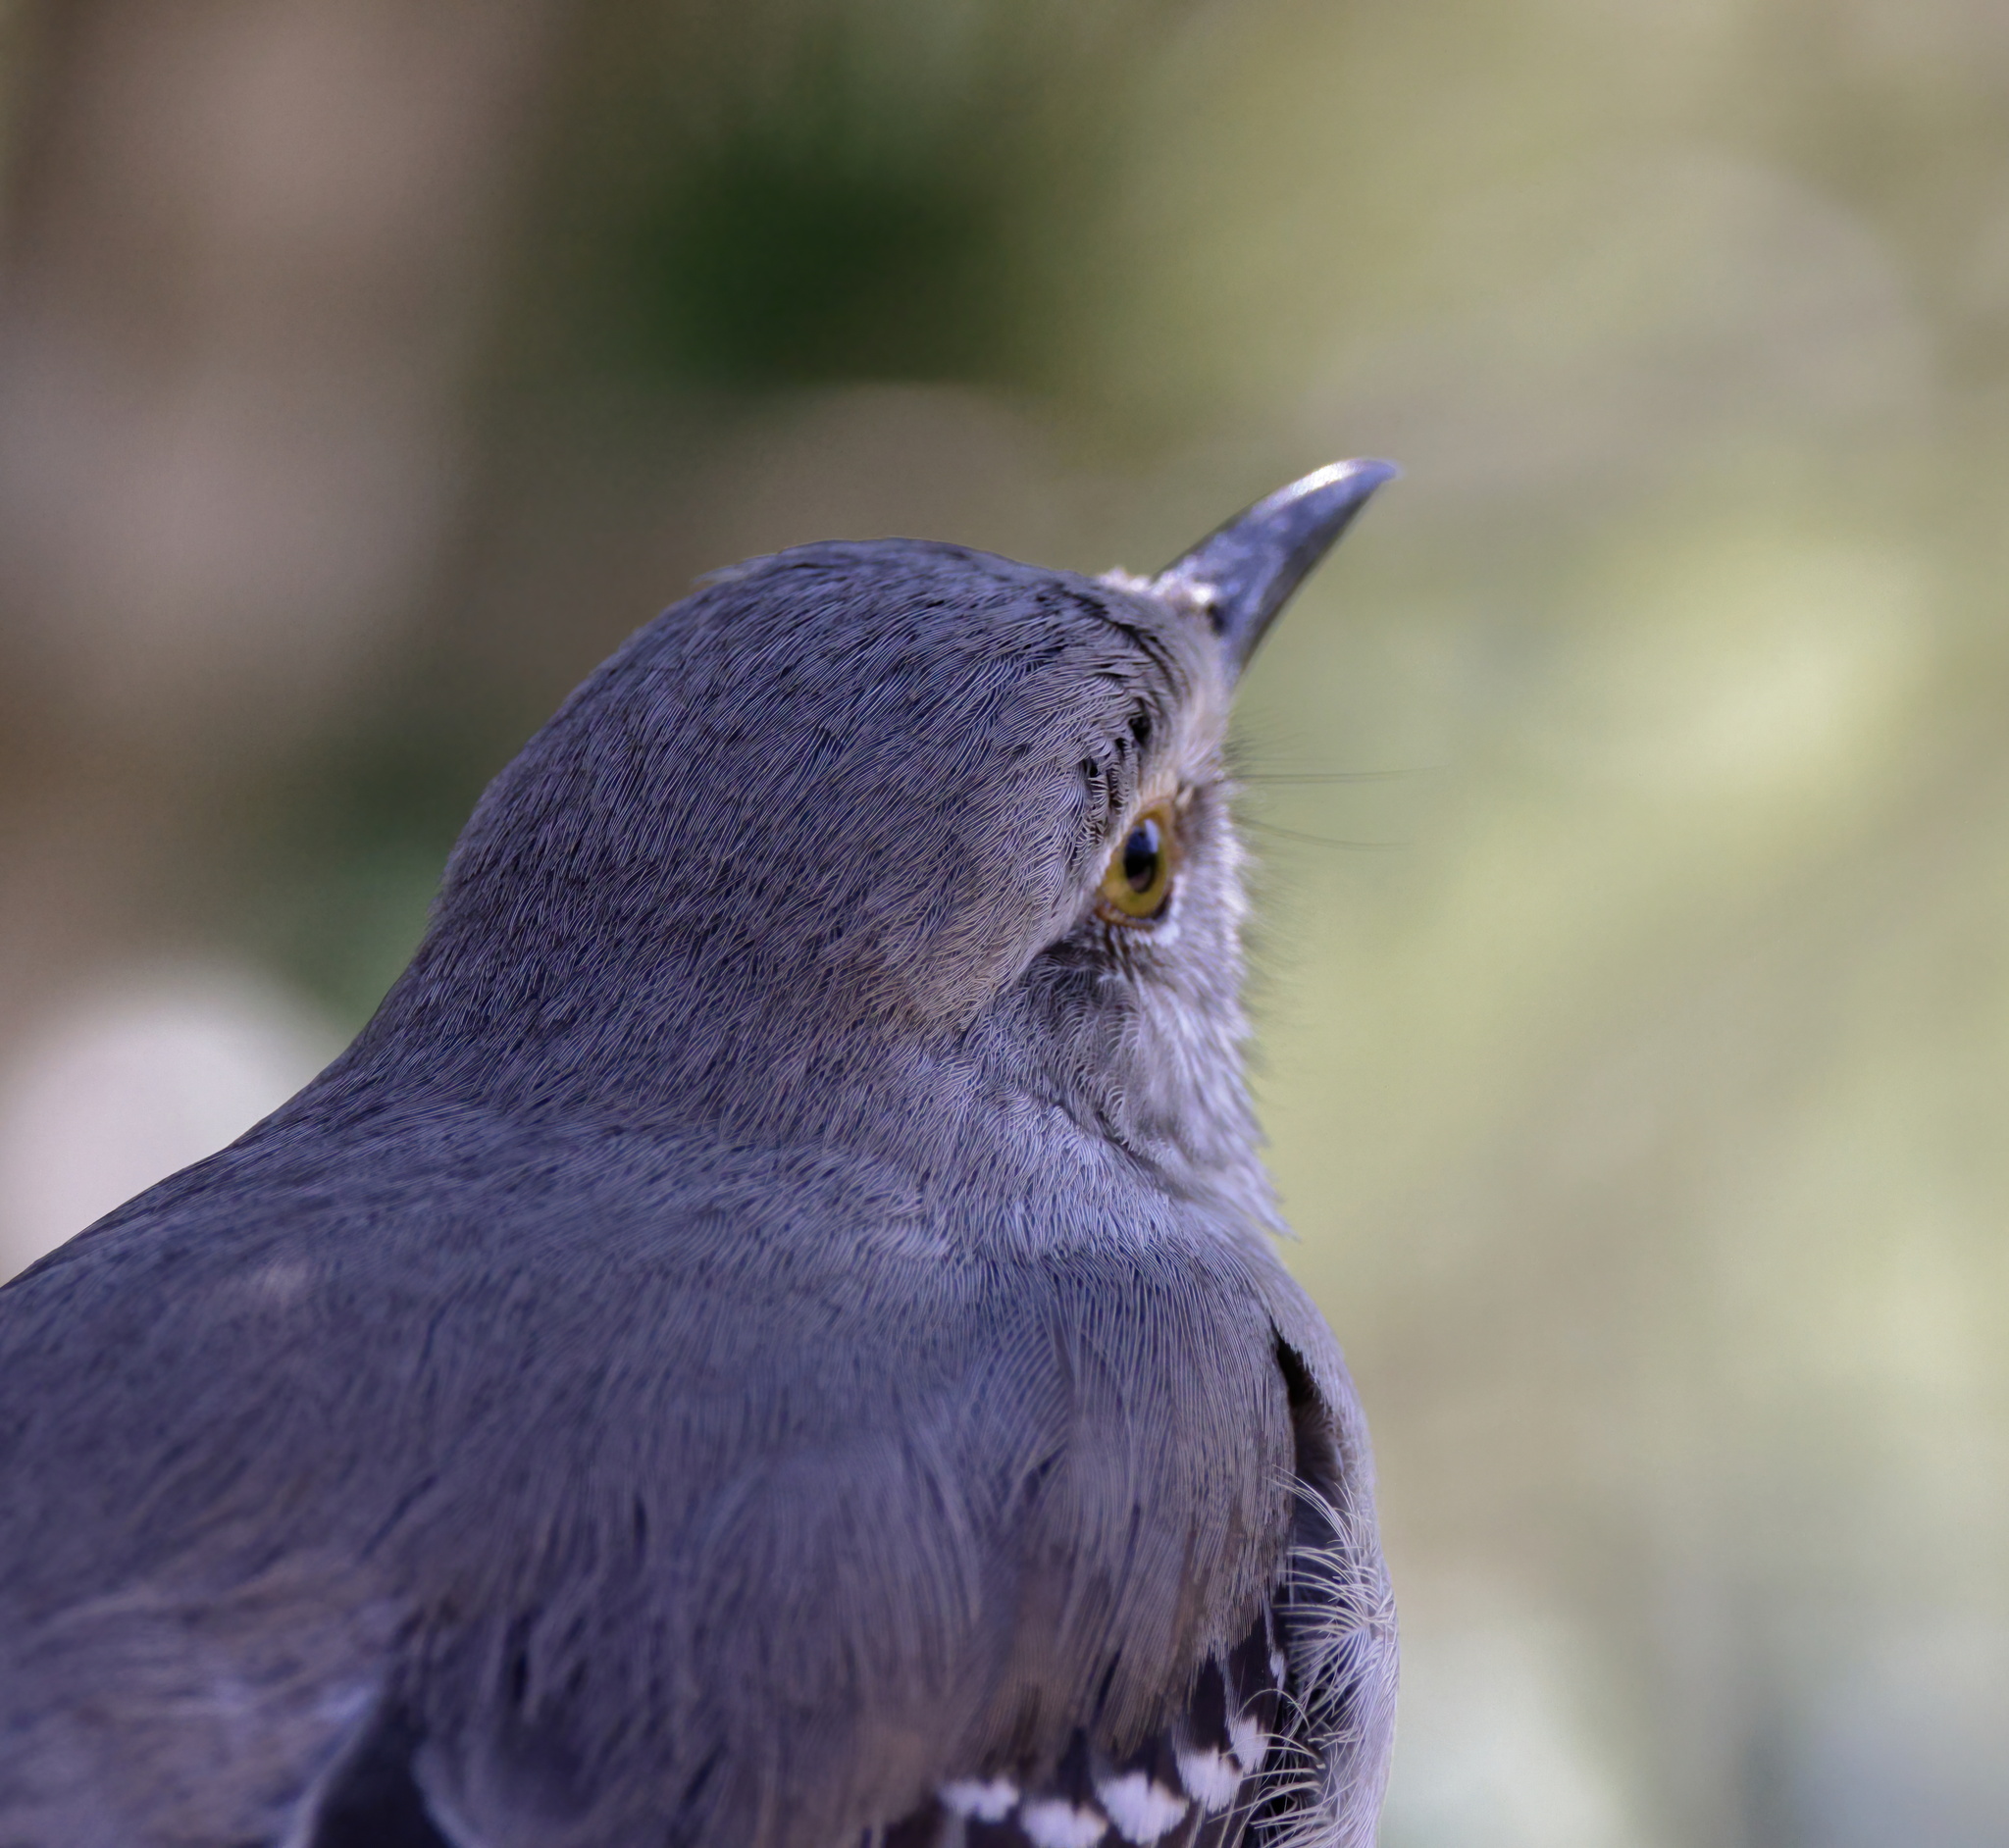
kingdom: Animalia
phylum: Chordata
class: Aves
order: Passeriformes
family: Mimidae
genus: Mimus
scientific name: Mimus polyglottos
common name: Northern mockingbird
